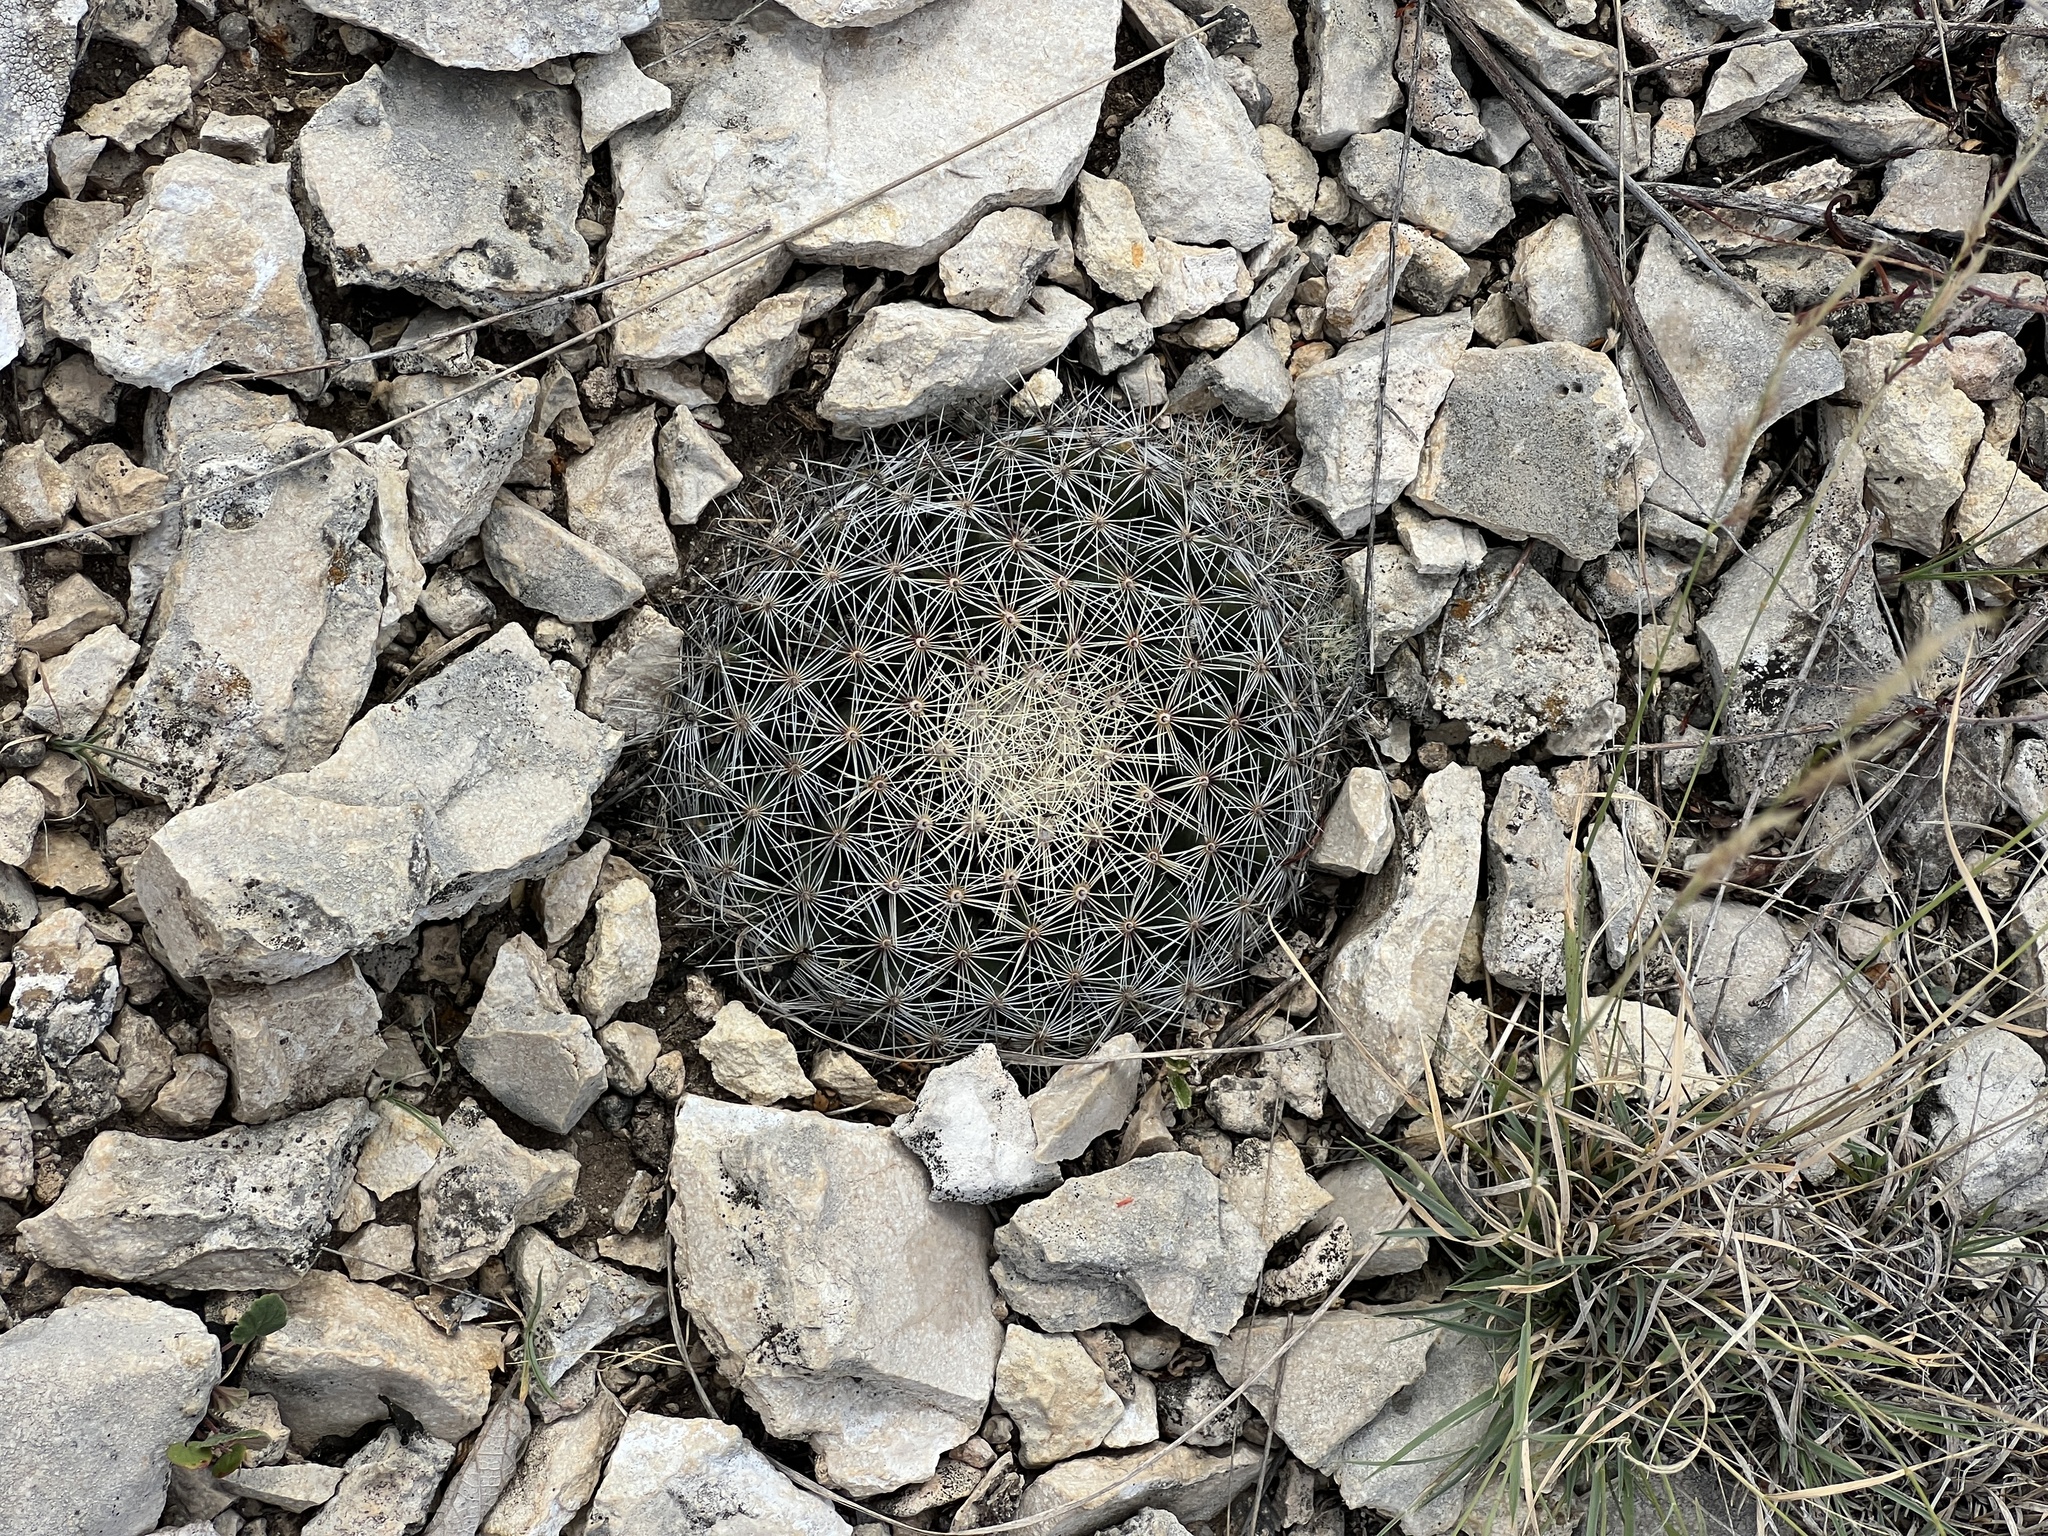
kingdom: Plantae
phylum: Tracheophyta
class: Magnoliopsida
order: Caryophyllales
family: Cactaceae
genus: Mammillaria
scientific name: Mammillaria heyderi
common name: Little nipple cactus
